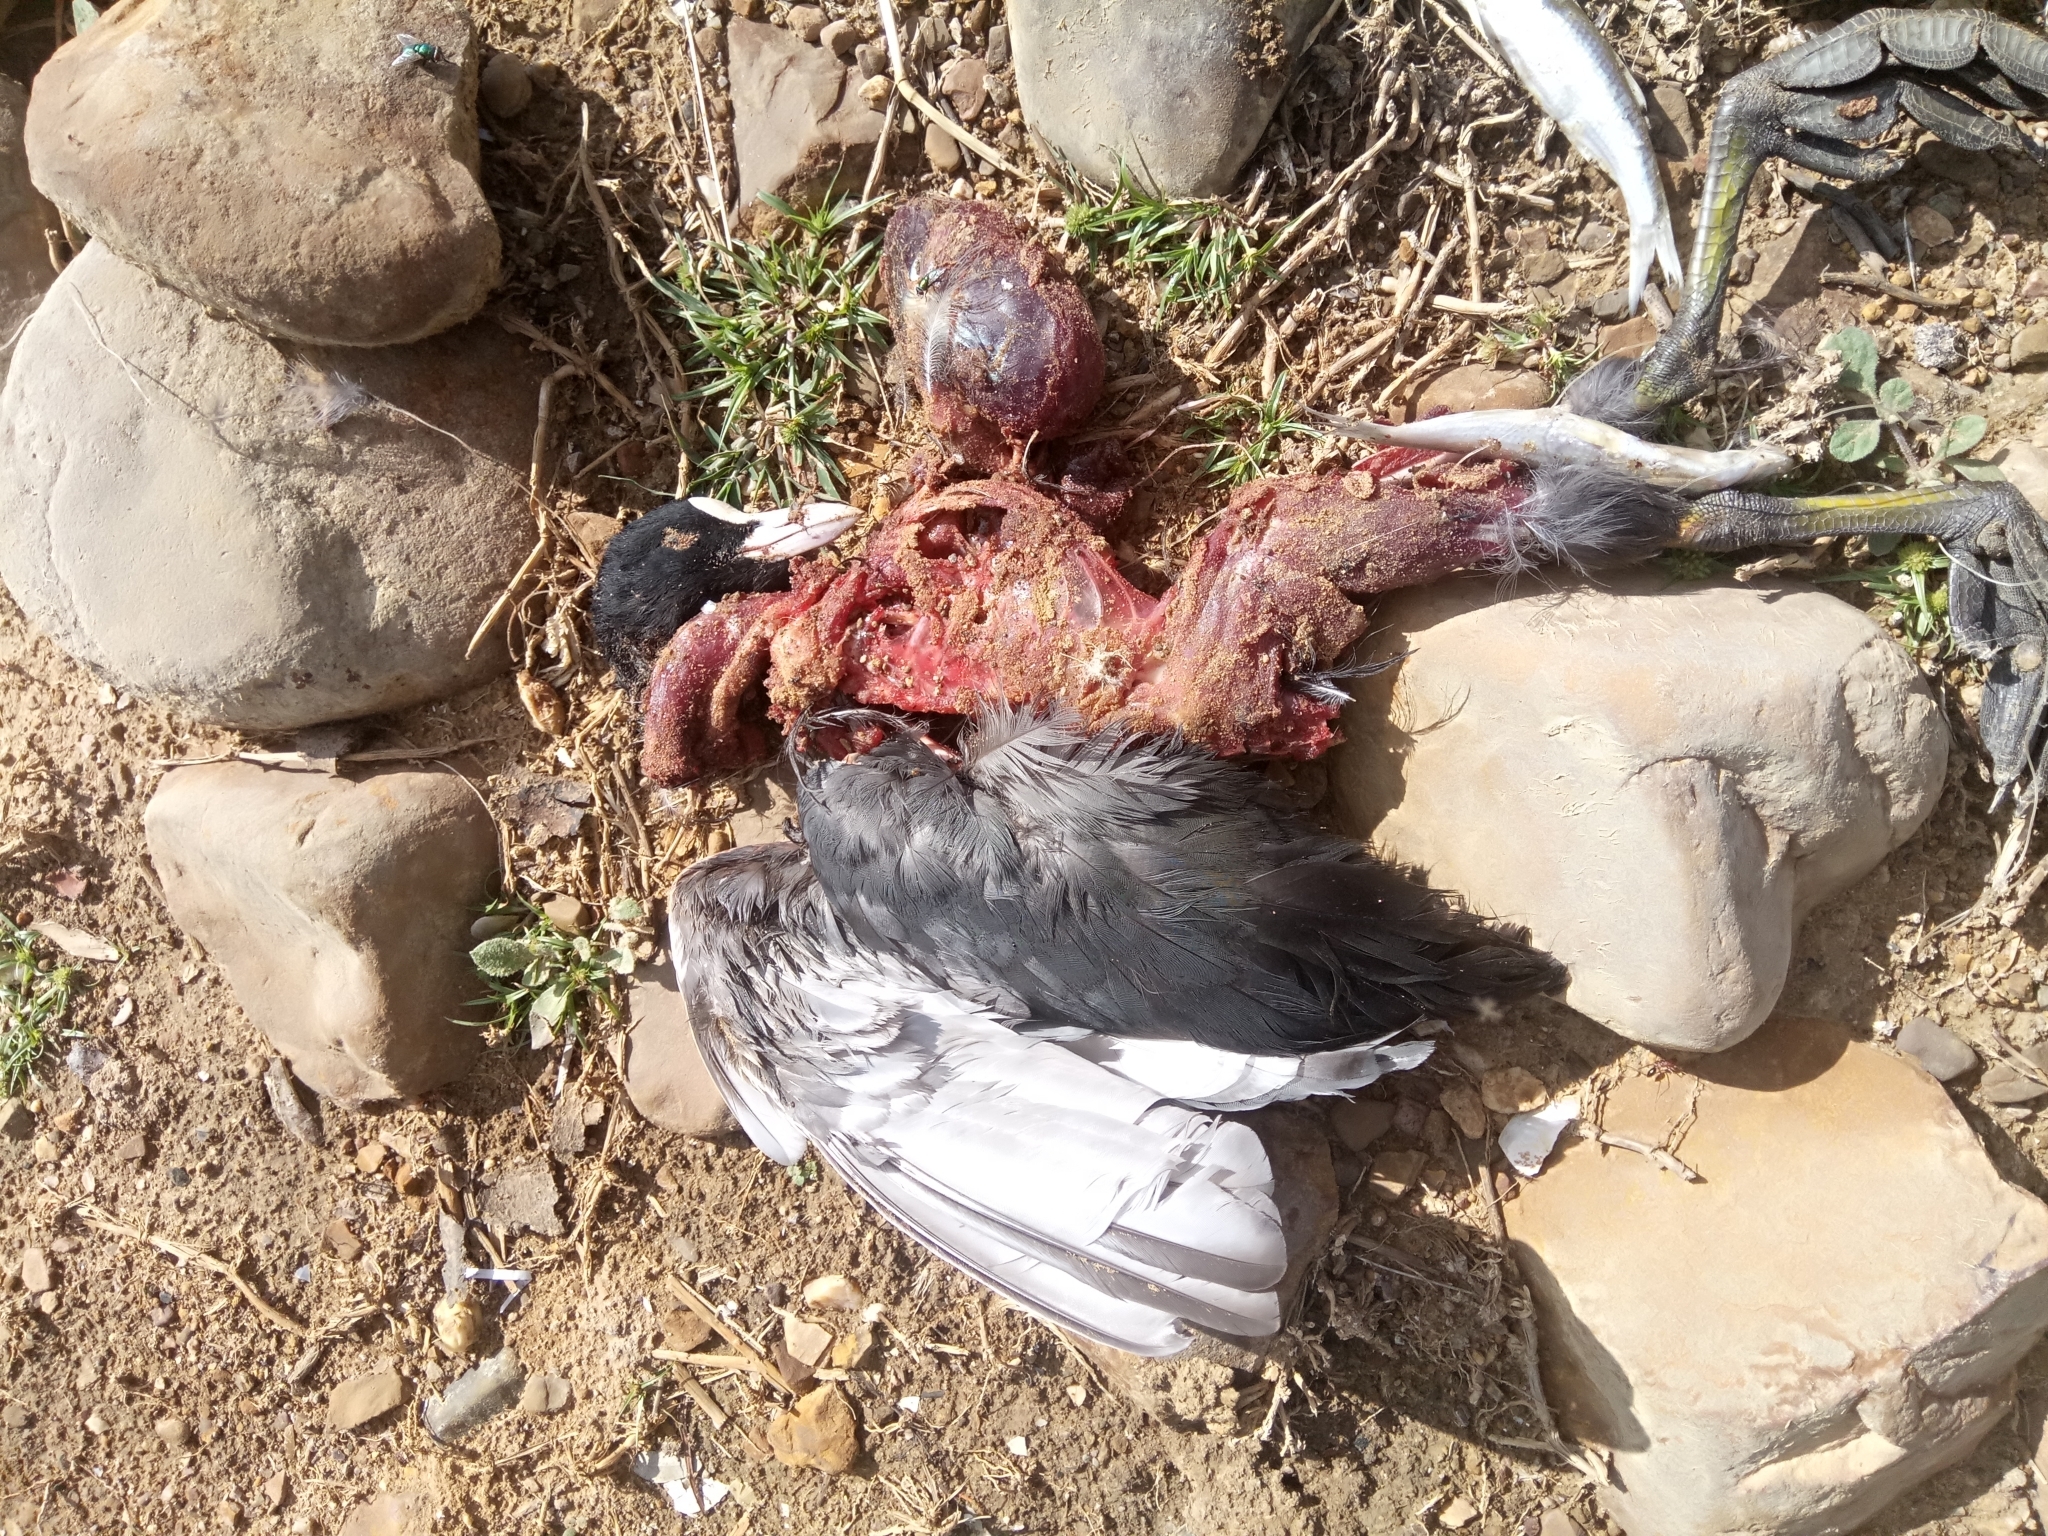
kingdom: Animalia
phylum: Chordata
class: Aves
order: Gruiformes
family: Rallidae
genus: Fulica
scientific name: Fulica atra
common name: Eurasian coot
